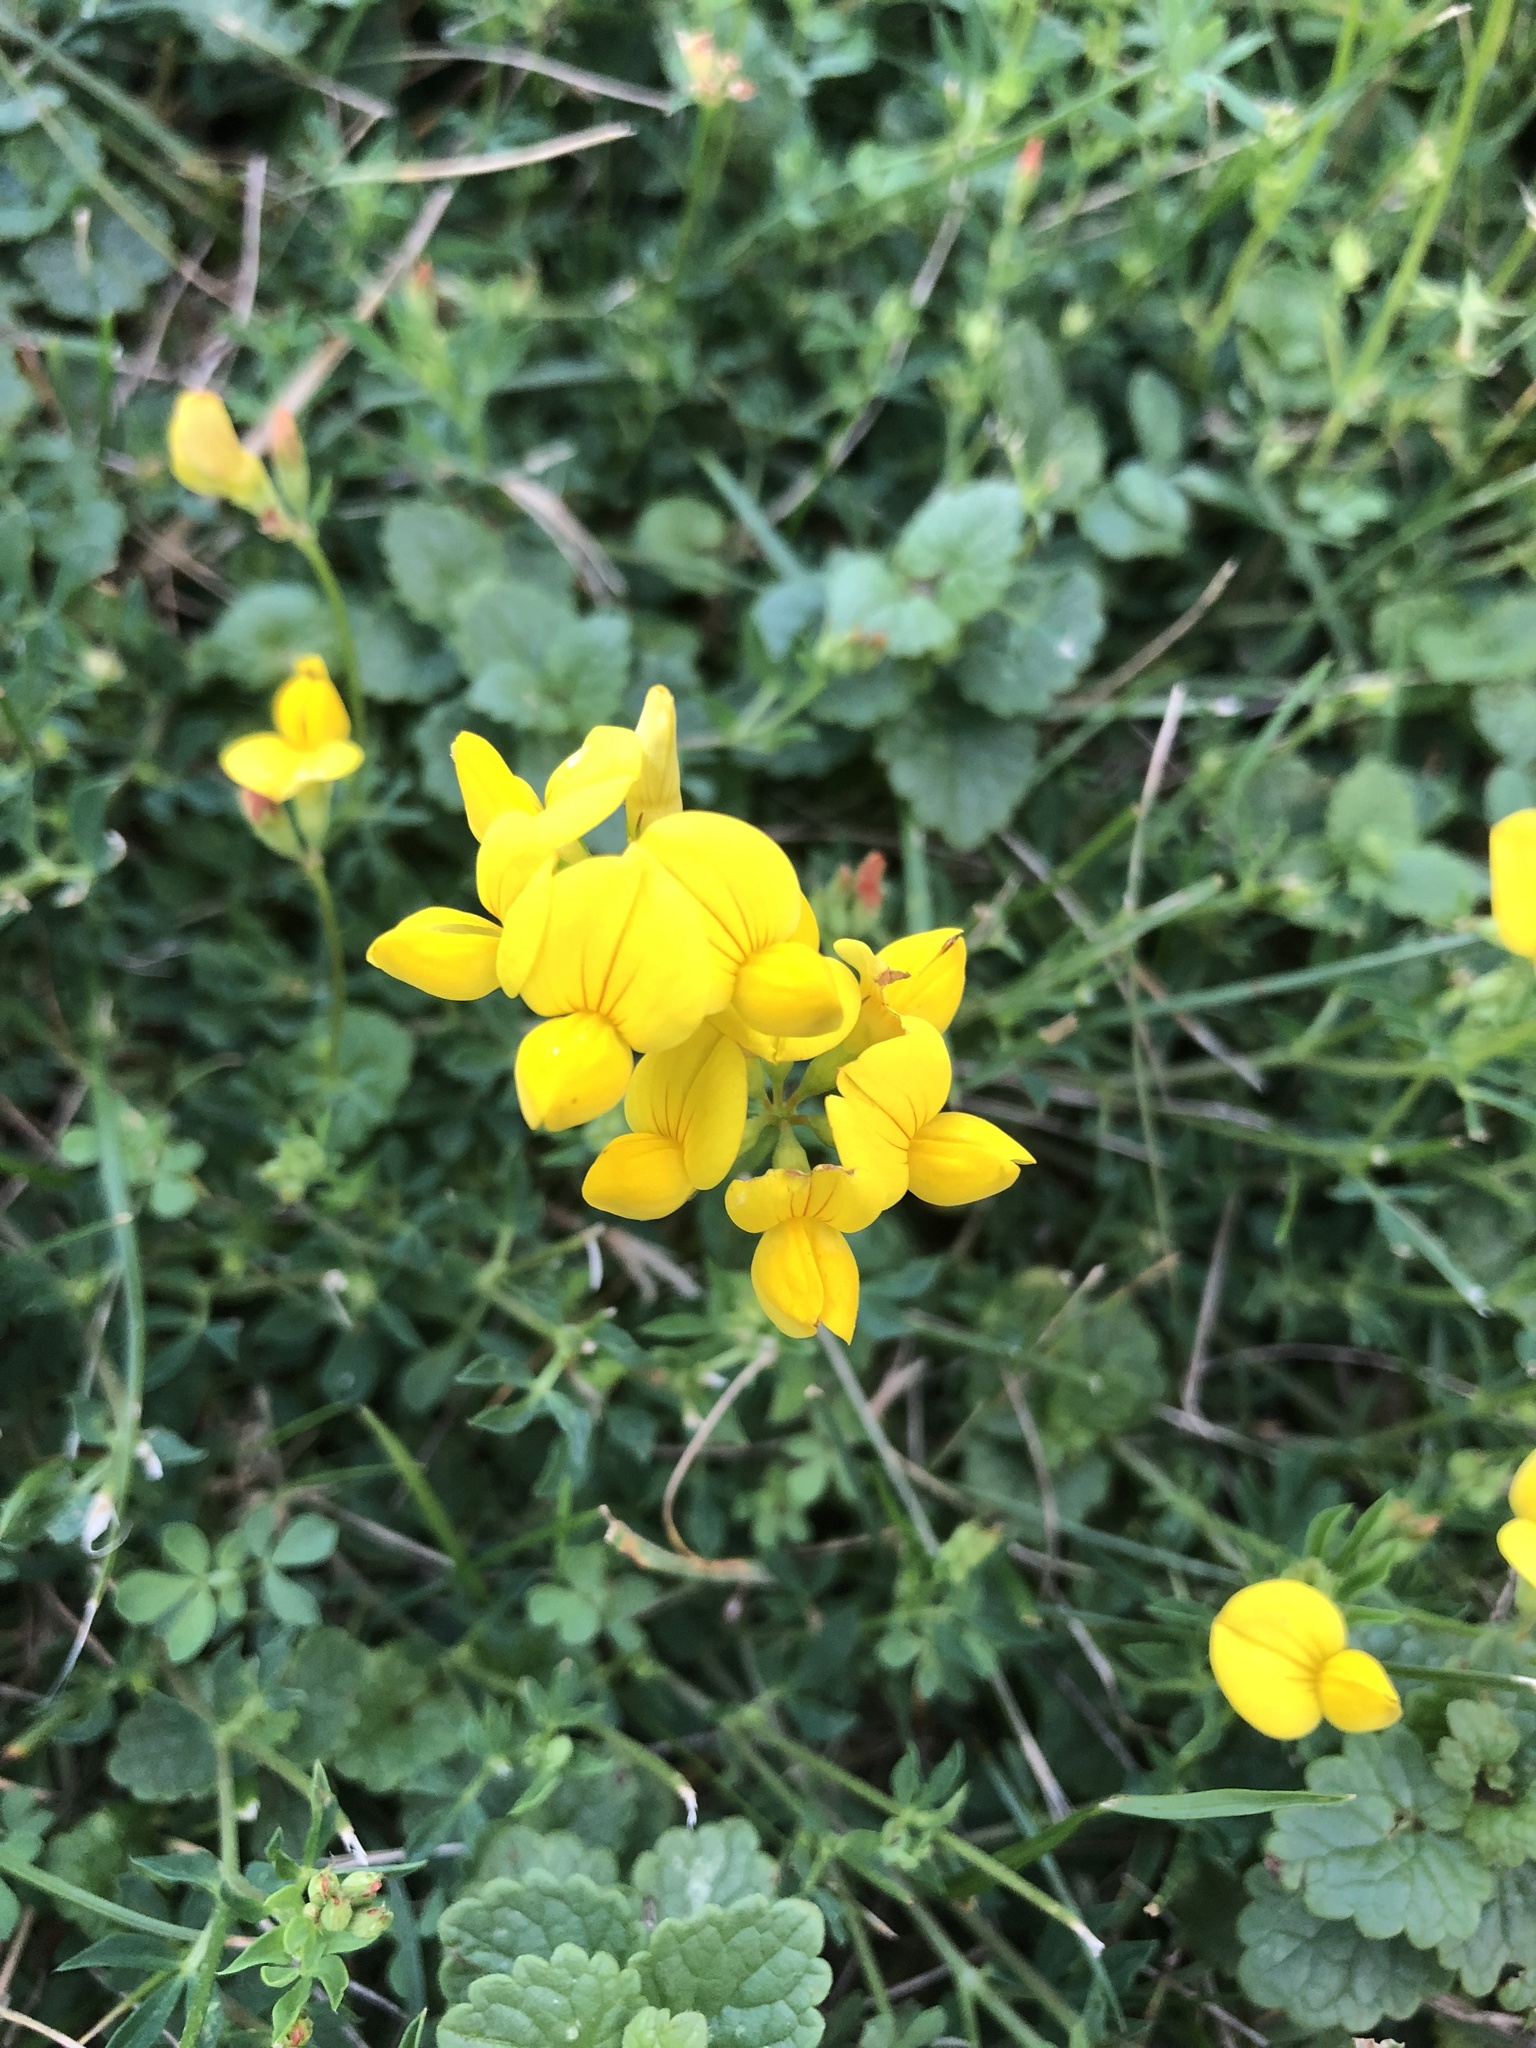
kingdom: Plantae
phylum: Tracheophyta
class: Magnoliopsida
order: Fabales
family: Fabaceae
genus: Lotus
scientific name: Lotus corniculatus
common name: Common bird's-foot-trefoil
